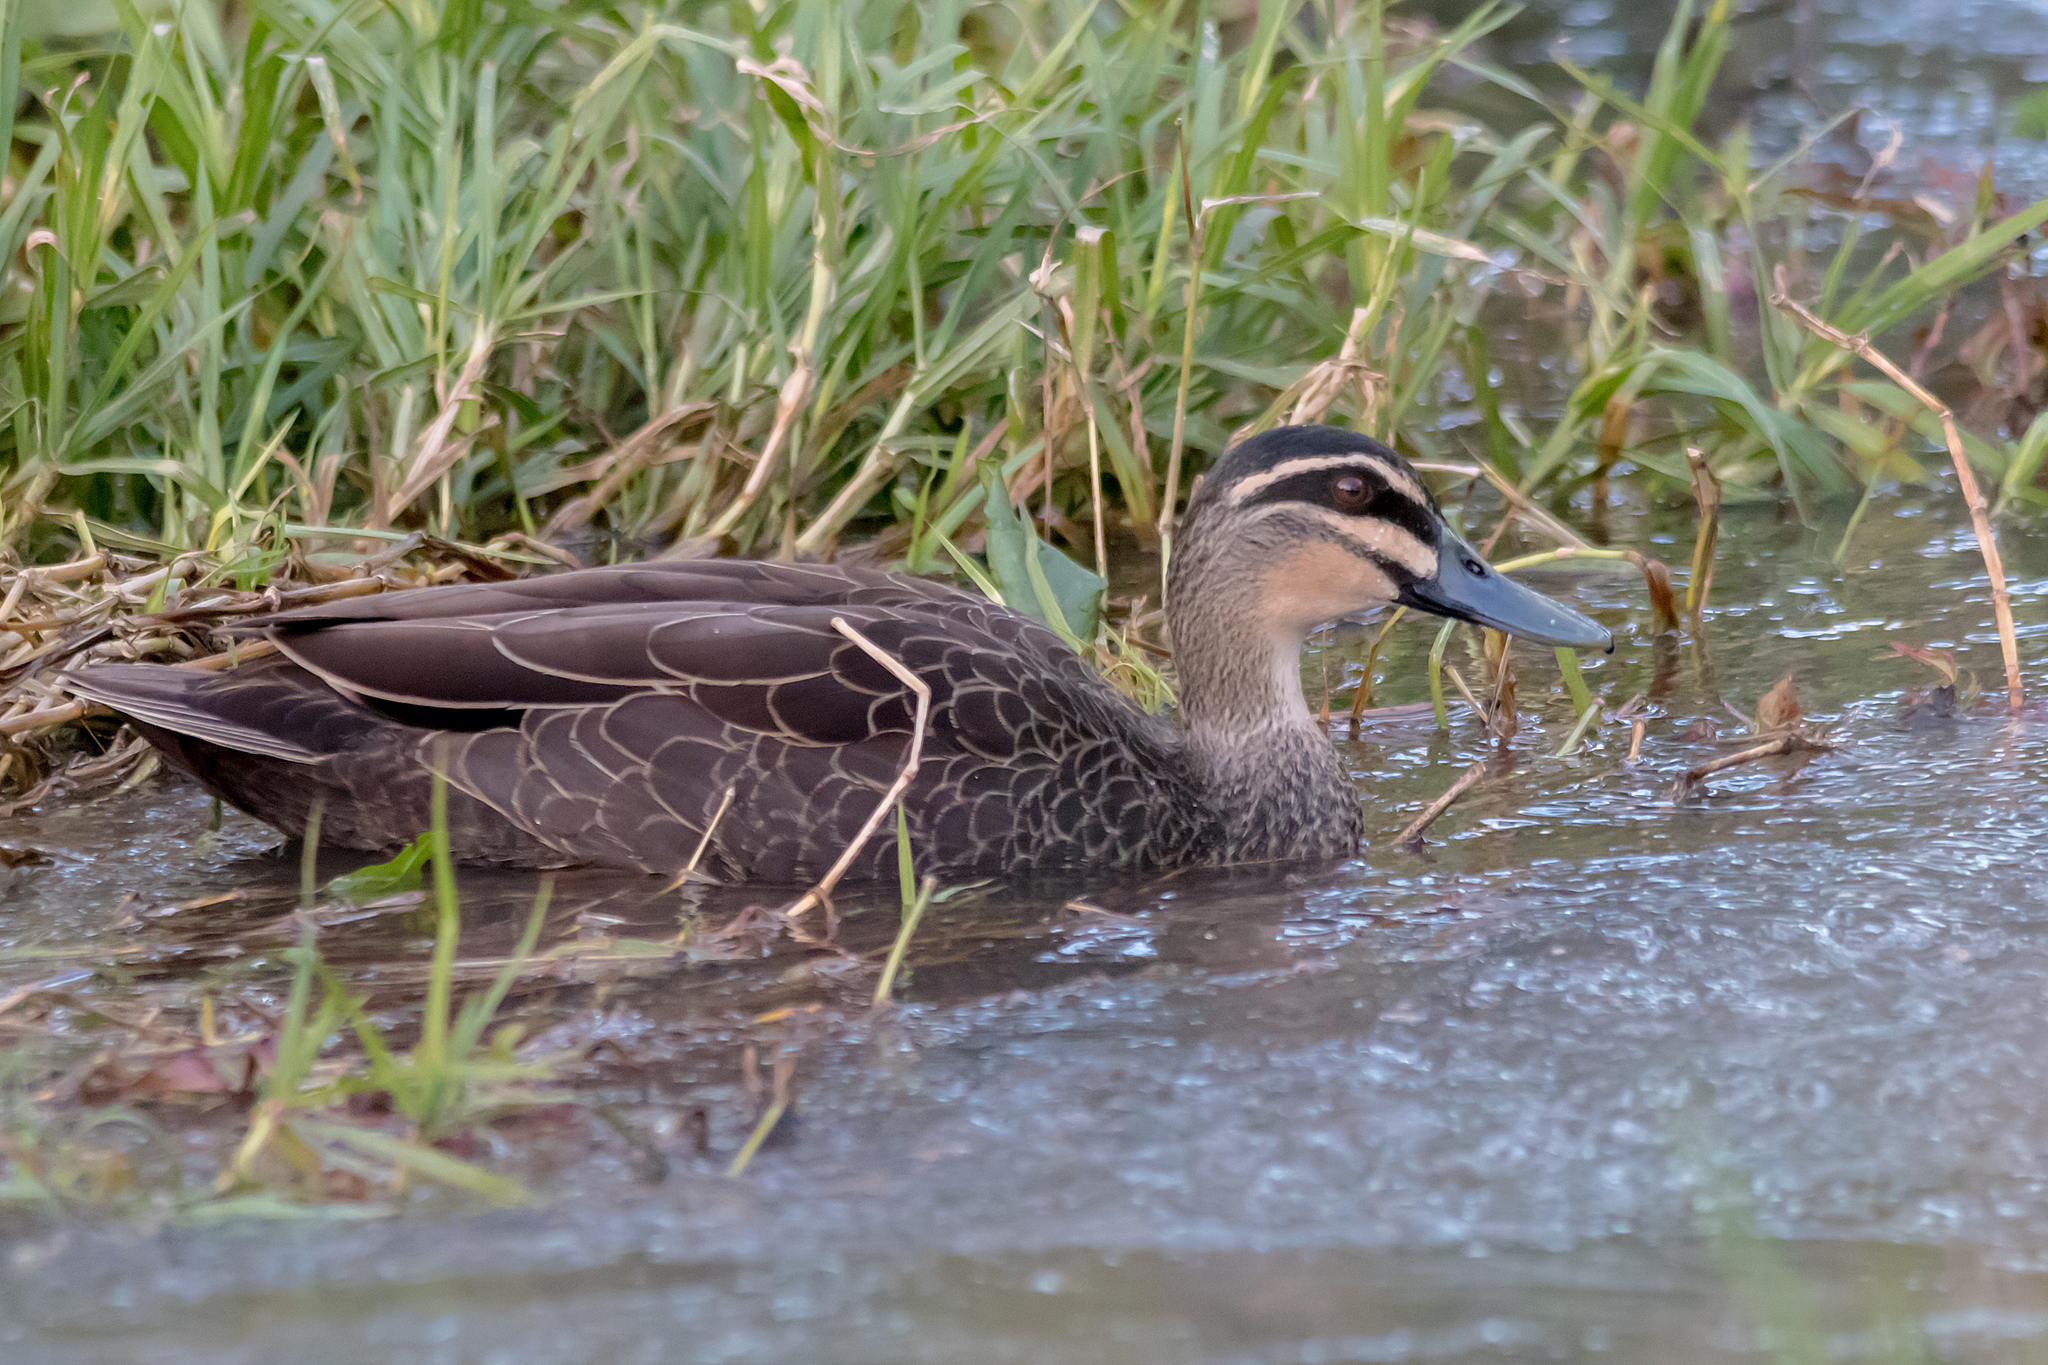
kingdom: Animalia
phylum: Chordata
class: Aves
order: Anseriformes
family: Anatidae
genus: Anas
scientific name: Anas superciliosa
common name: Pacific black duck
